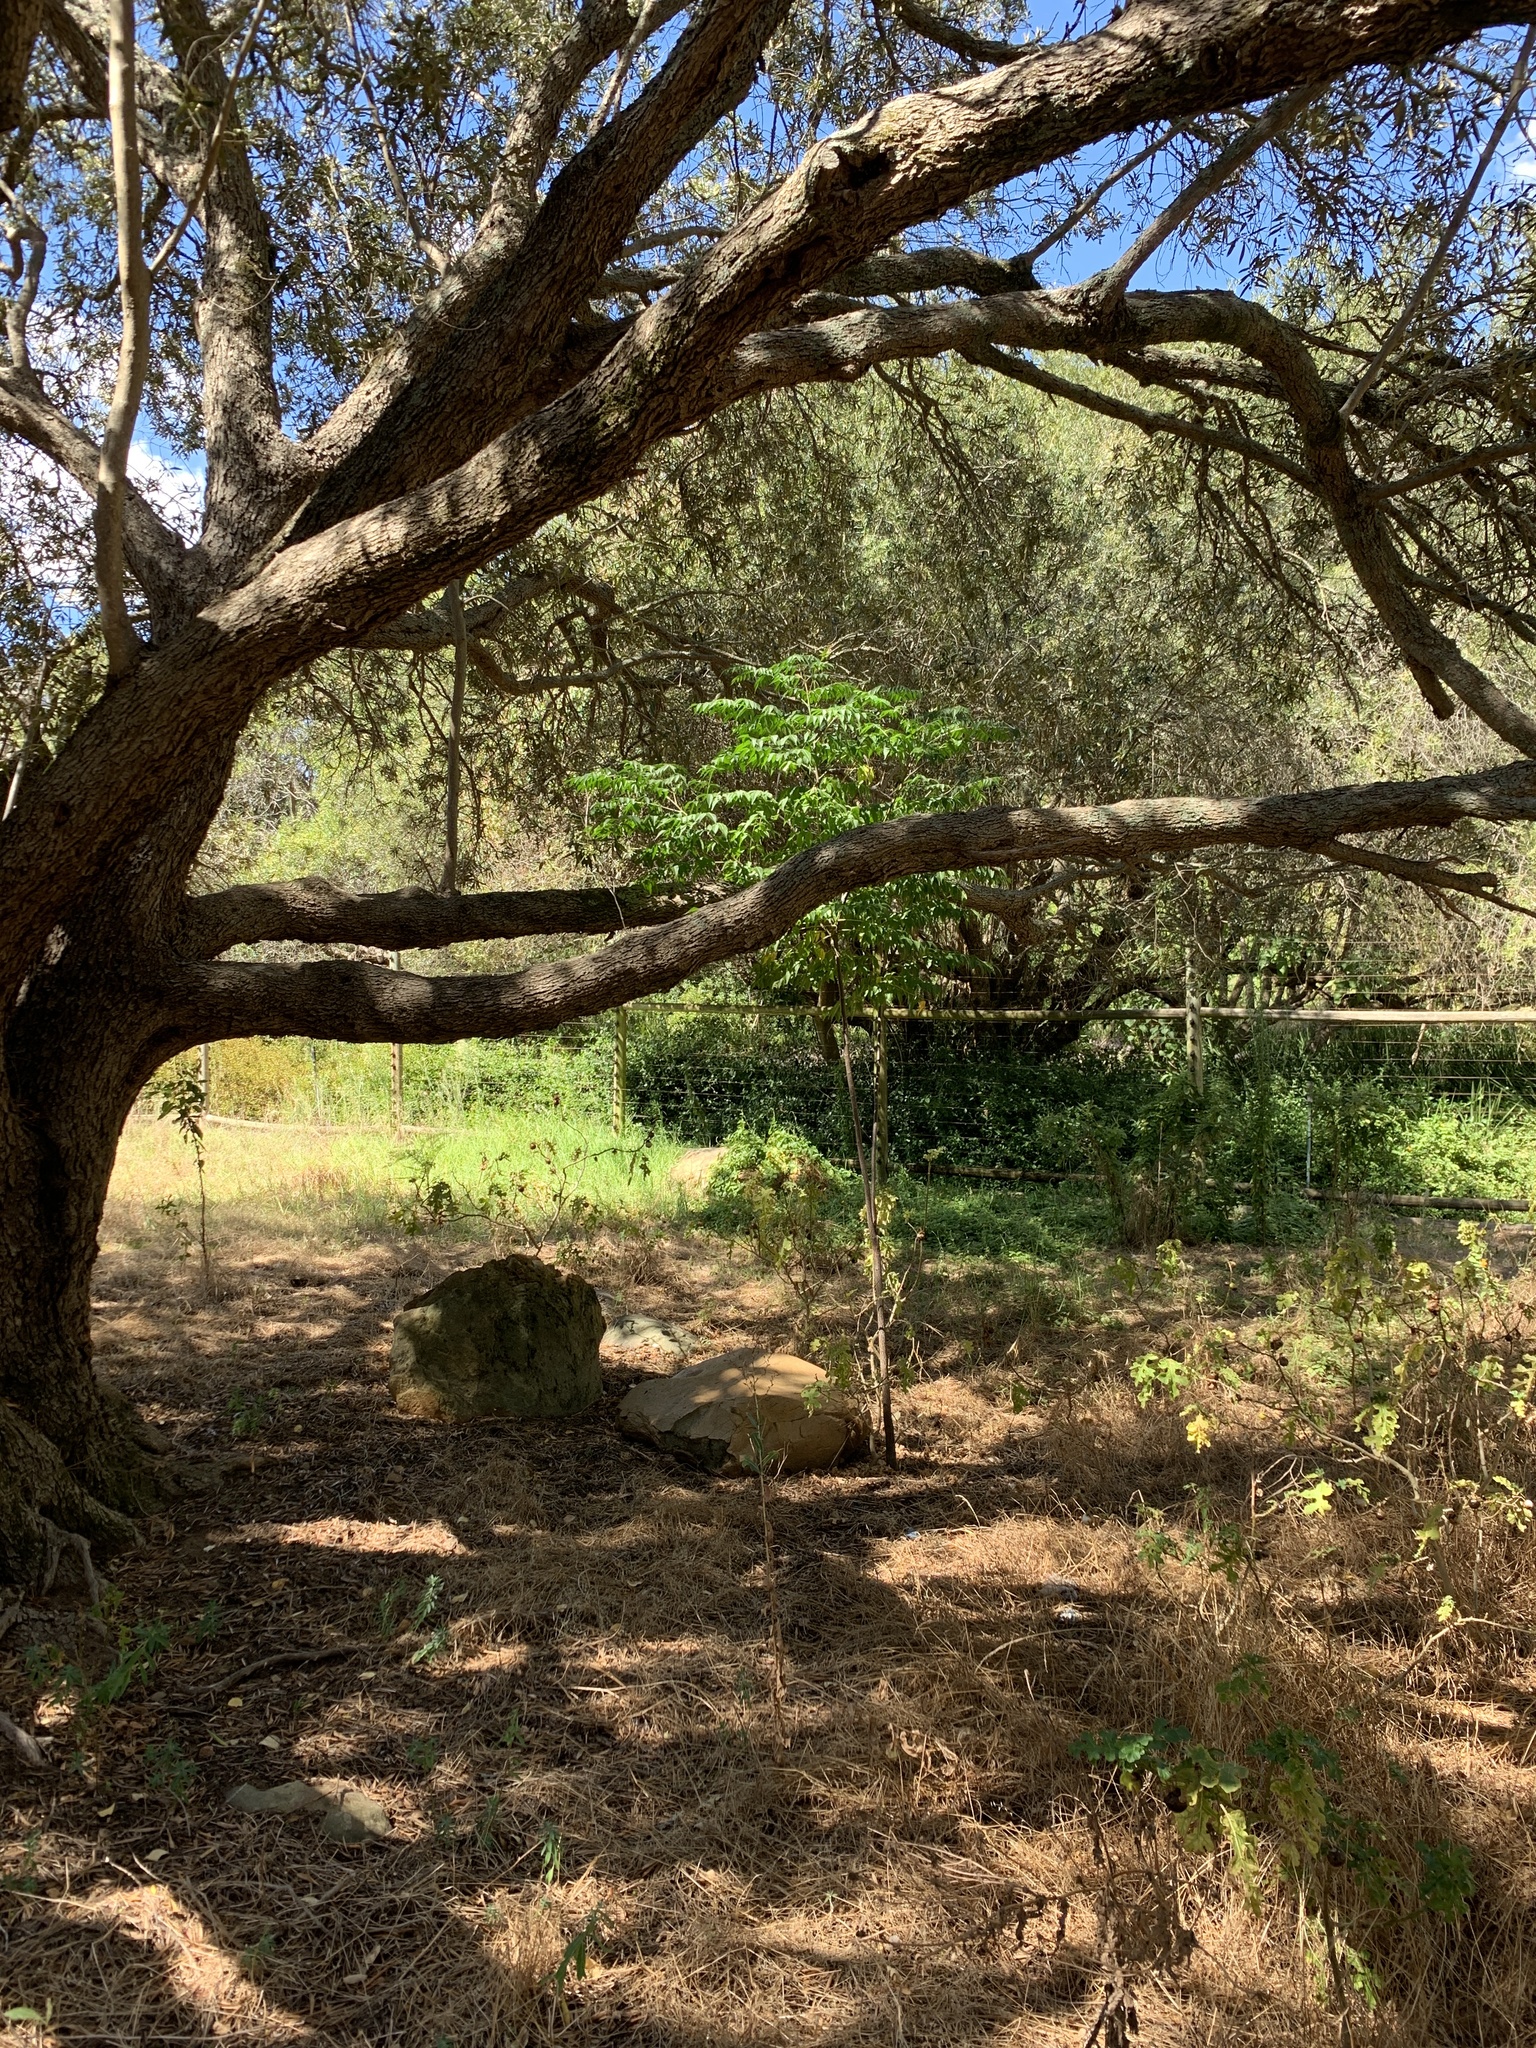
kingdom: Plantae
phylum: Tracheophyta
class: Magnoliopsida
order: Sapindales
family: Meliaceae
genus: Melia
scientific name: Melia azedarach
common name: Chinaberrytree
